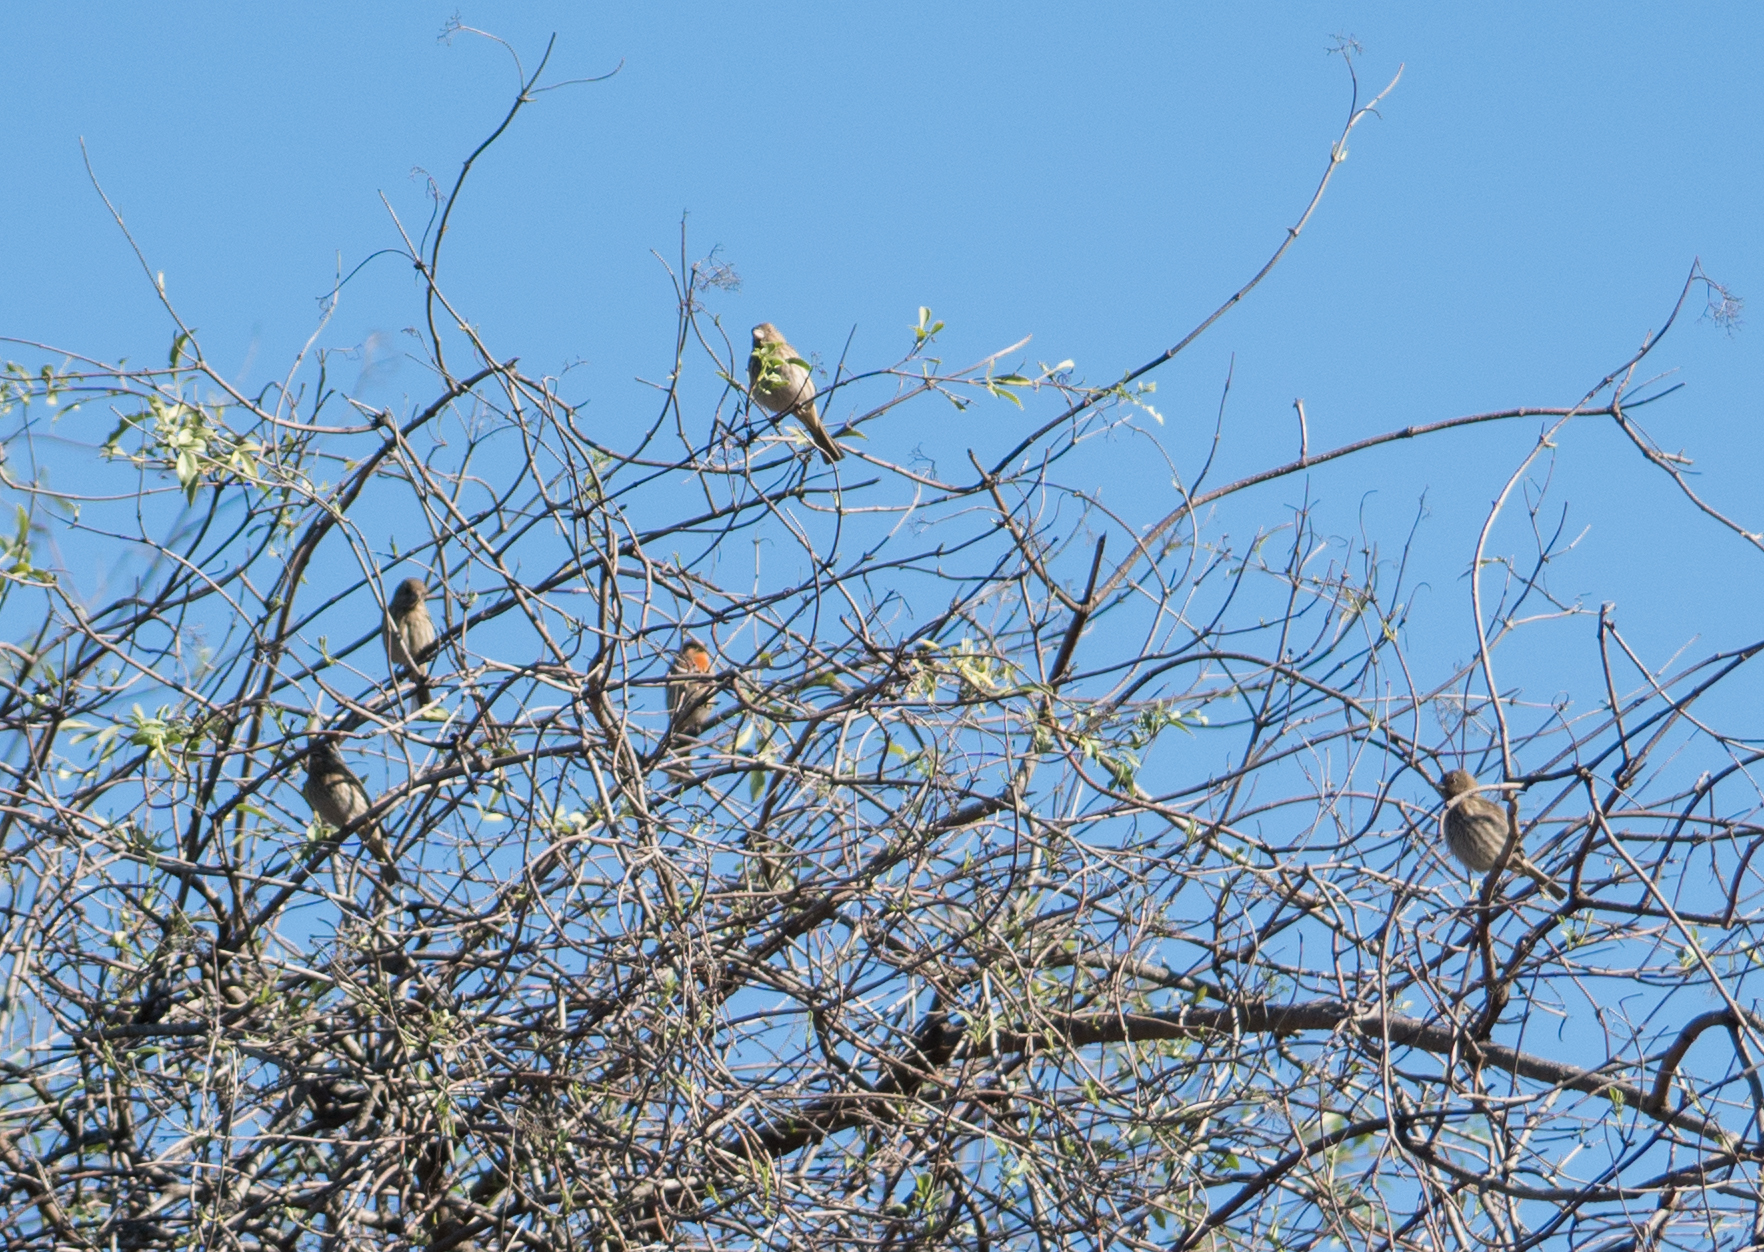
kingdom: Animalia
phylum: Chordata
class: Aves
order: Passeriformes
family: Fringillidae
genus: Haemorhous
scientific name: Haemorhous mexicanus
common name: House finch
